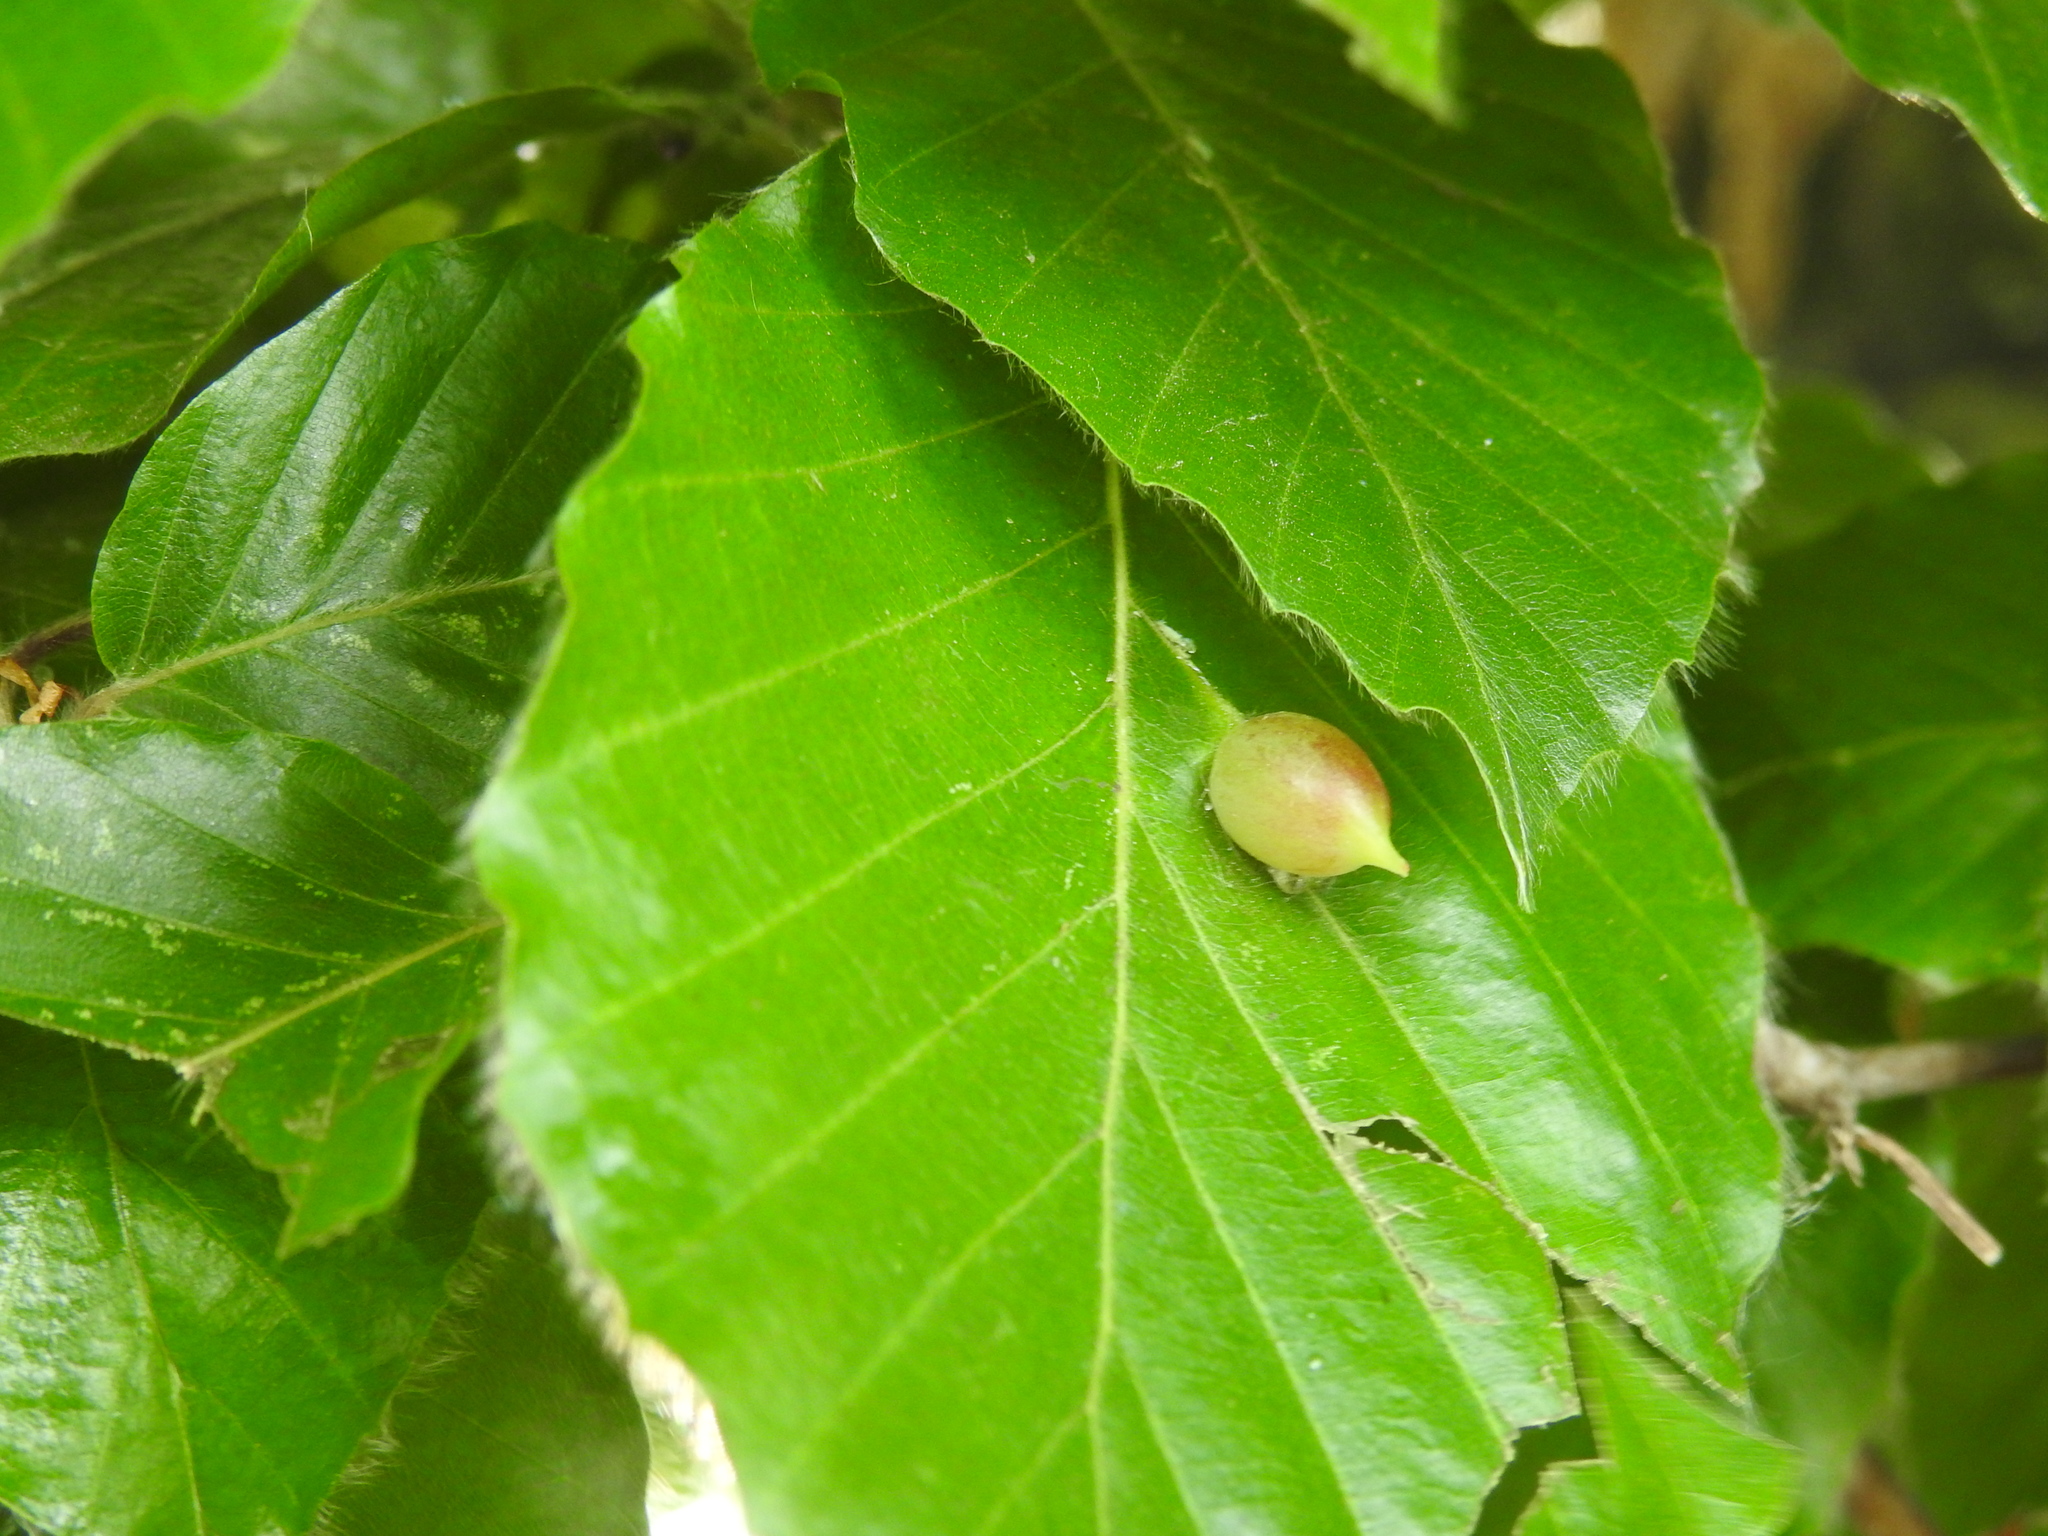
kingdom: Animalia
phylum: Arthropoda
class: Insecta
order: Diptera
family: Cecidomyiidae
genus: Mikiola
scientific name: Mikiola fagi
